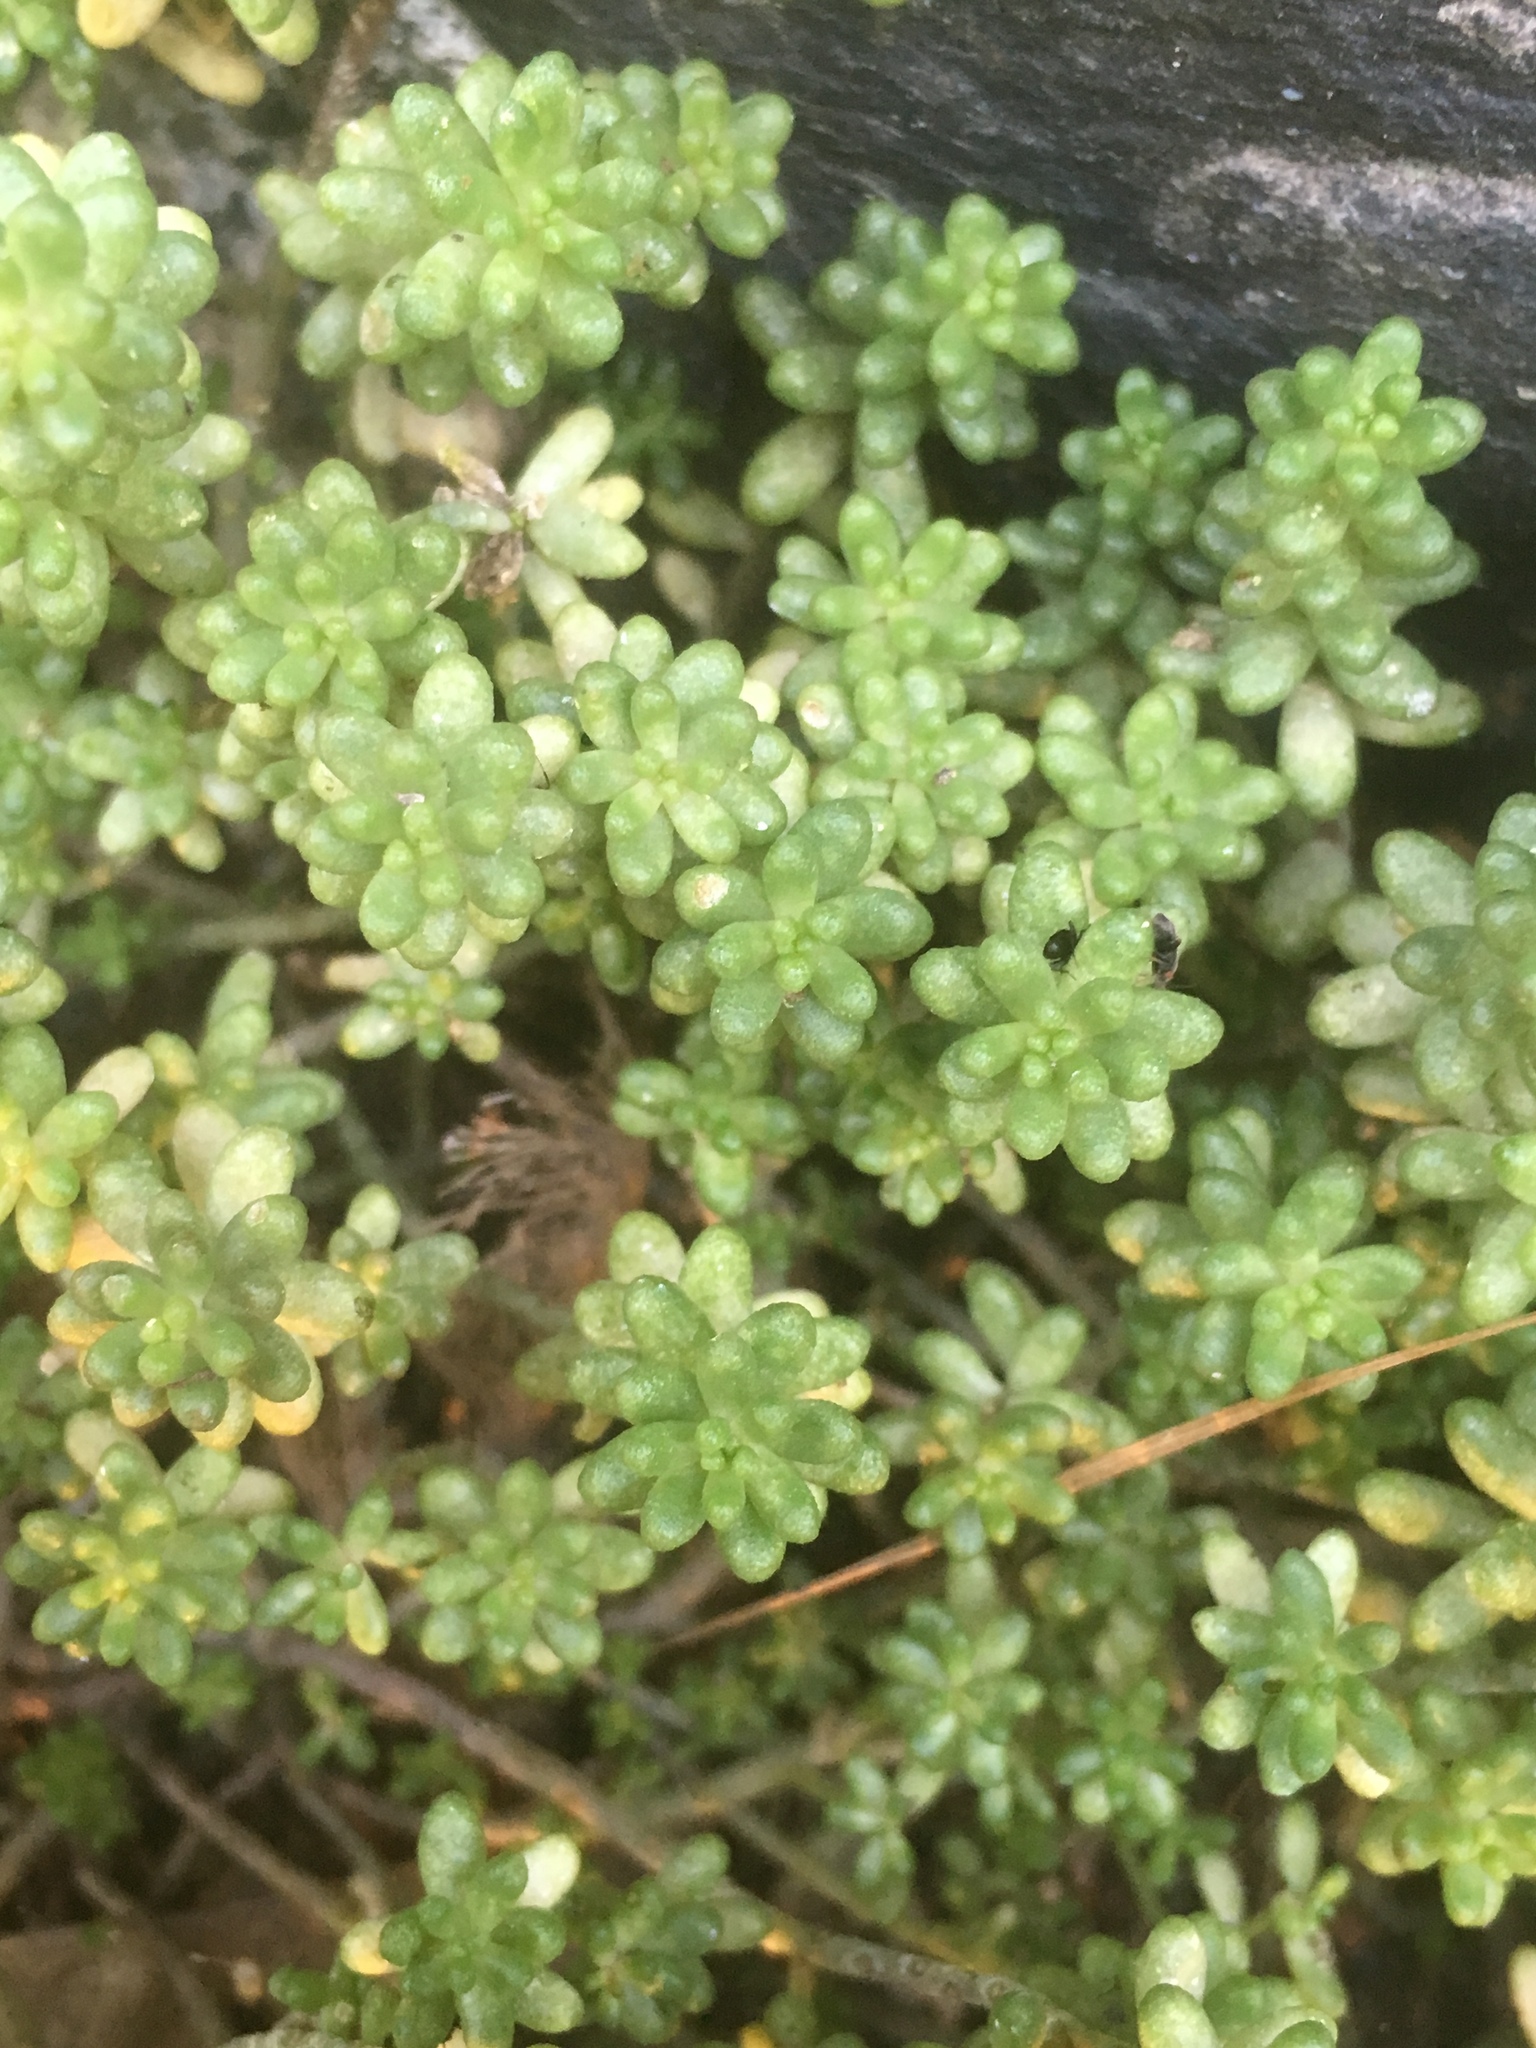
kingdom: Plantae
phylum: Tracheophyta
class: Magnoliopsida
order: Saxifragales
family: Crassulaceae
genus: Sedum
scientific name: Sedum album
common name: White stonecrop
